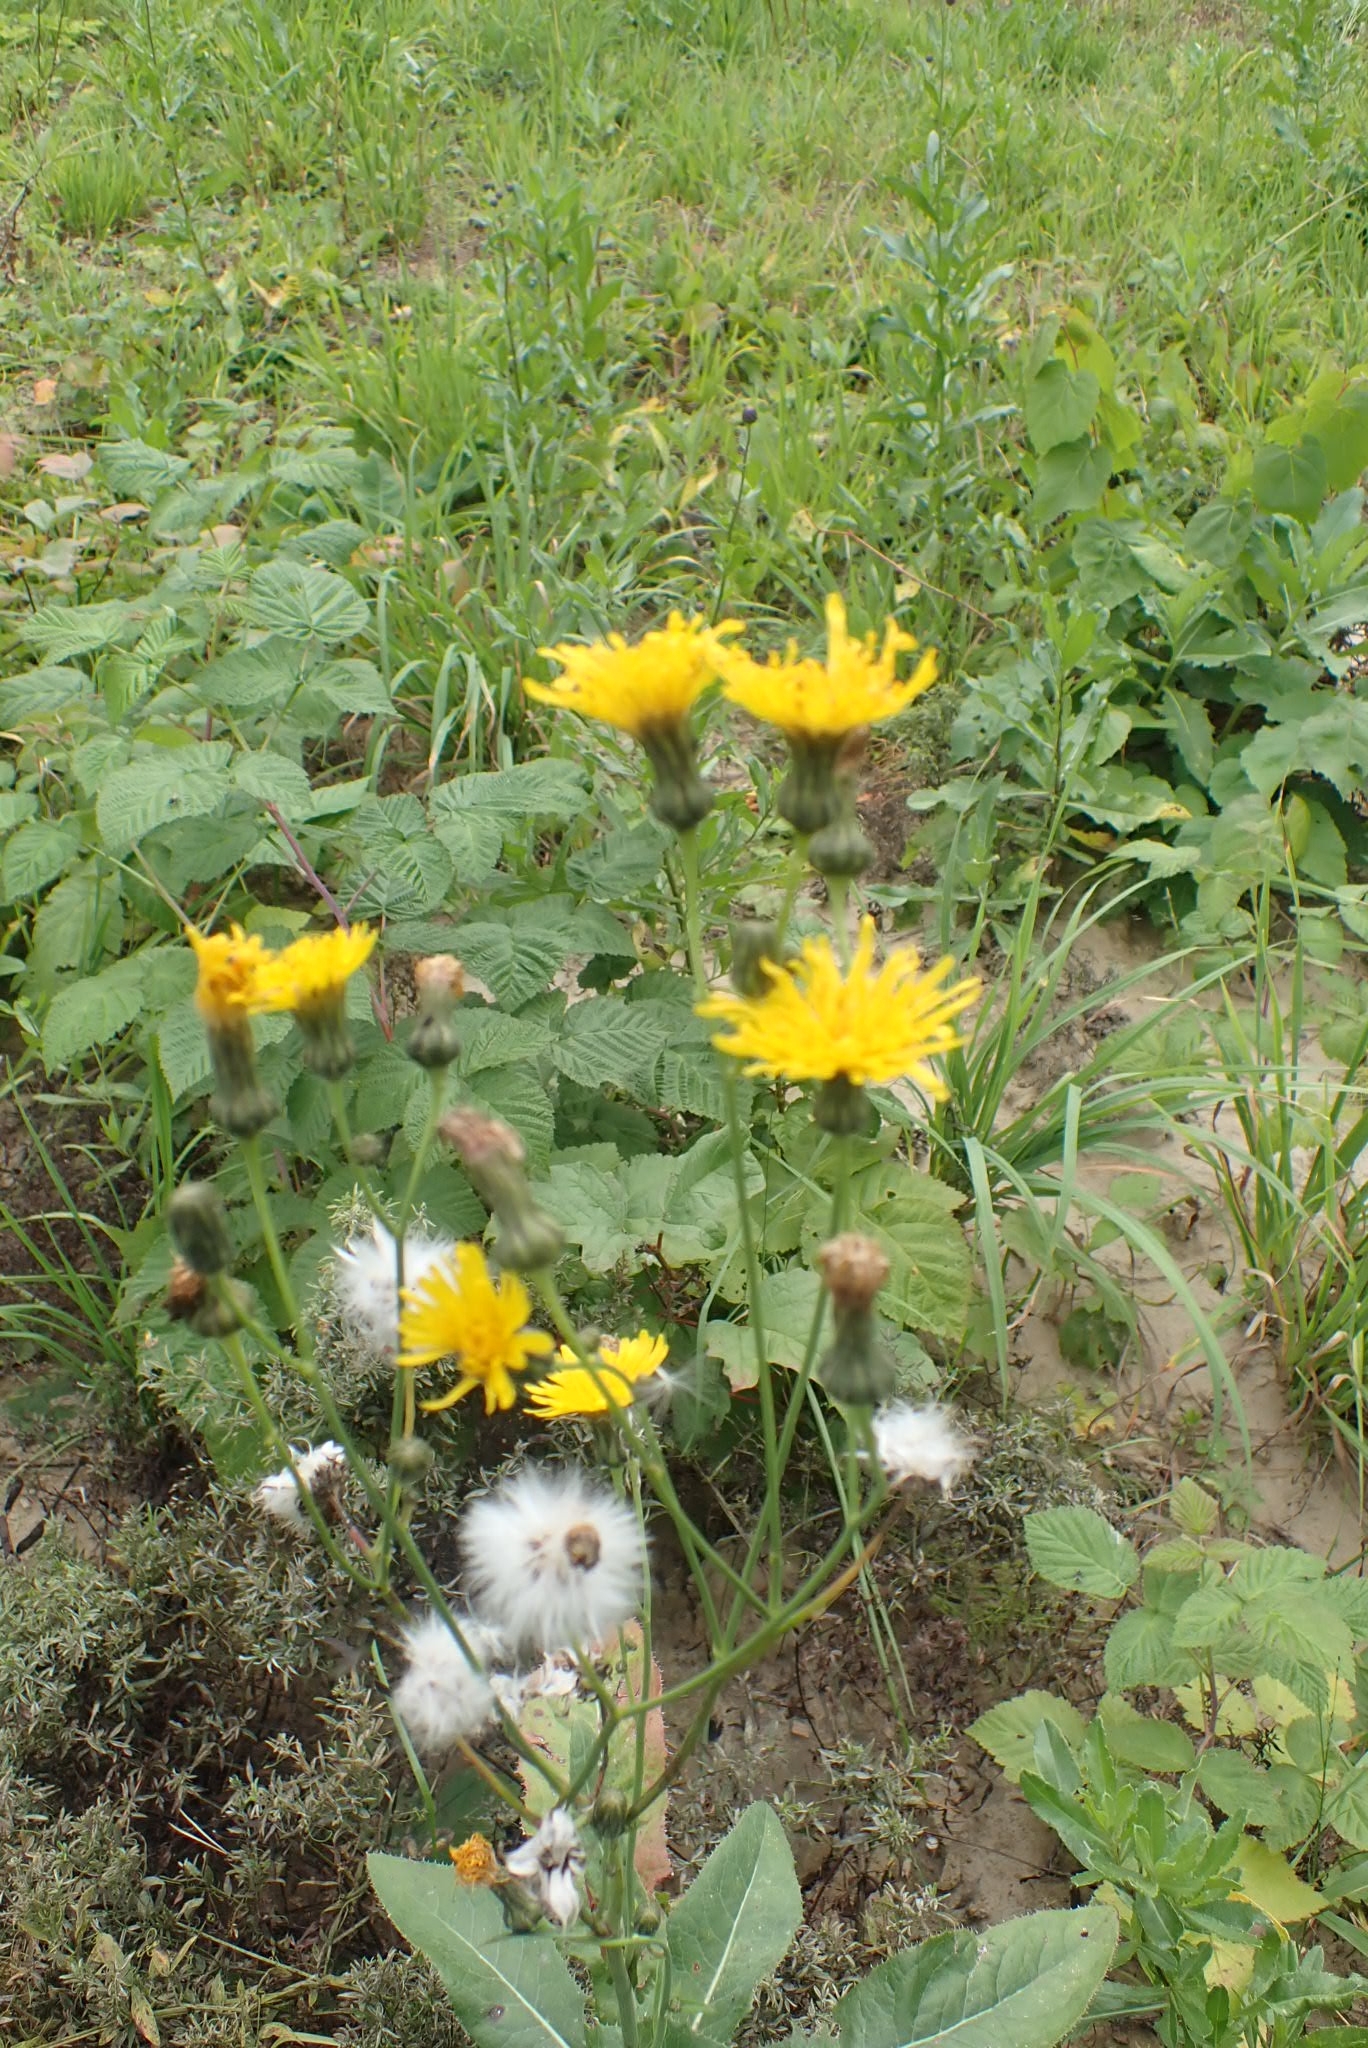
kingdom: Plantae
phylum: Tracheophyta
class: Magnoliopsida
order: Asterales
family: Asteraceae
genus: Sonchus
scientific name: Sonchus arvensis
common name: Perennial sow-thistle
